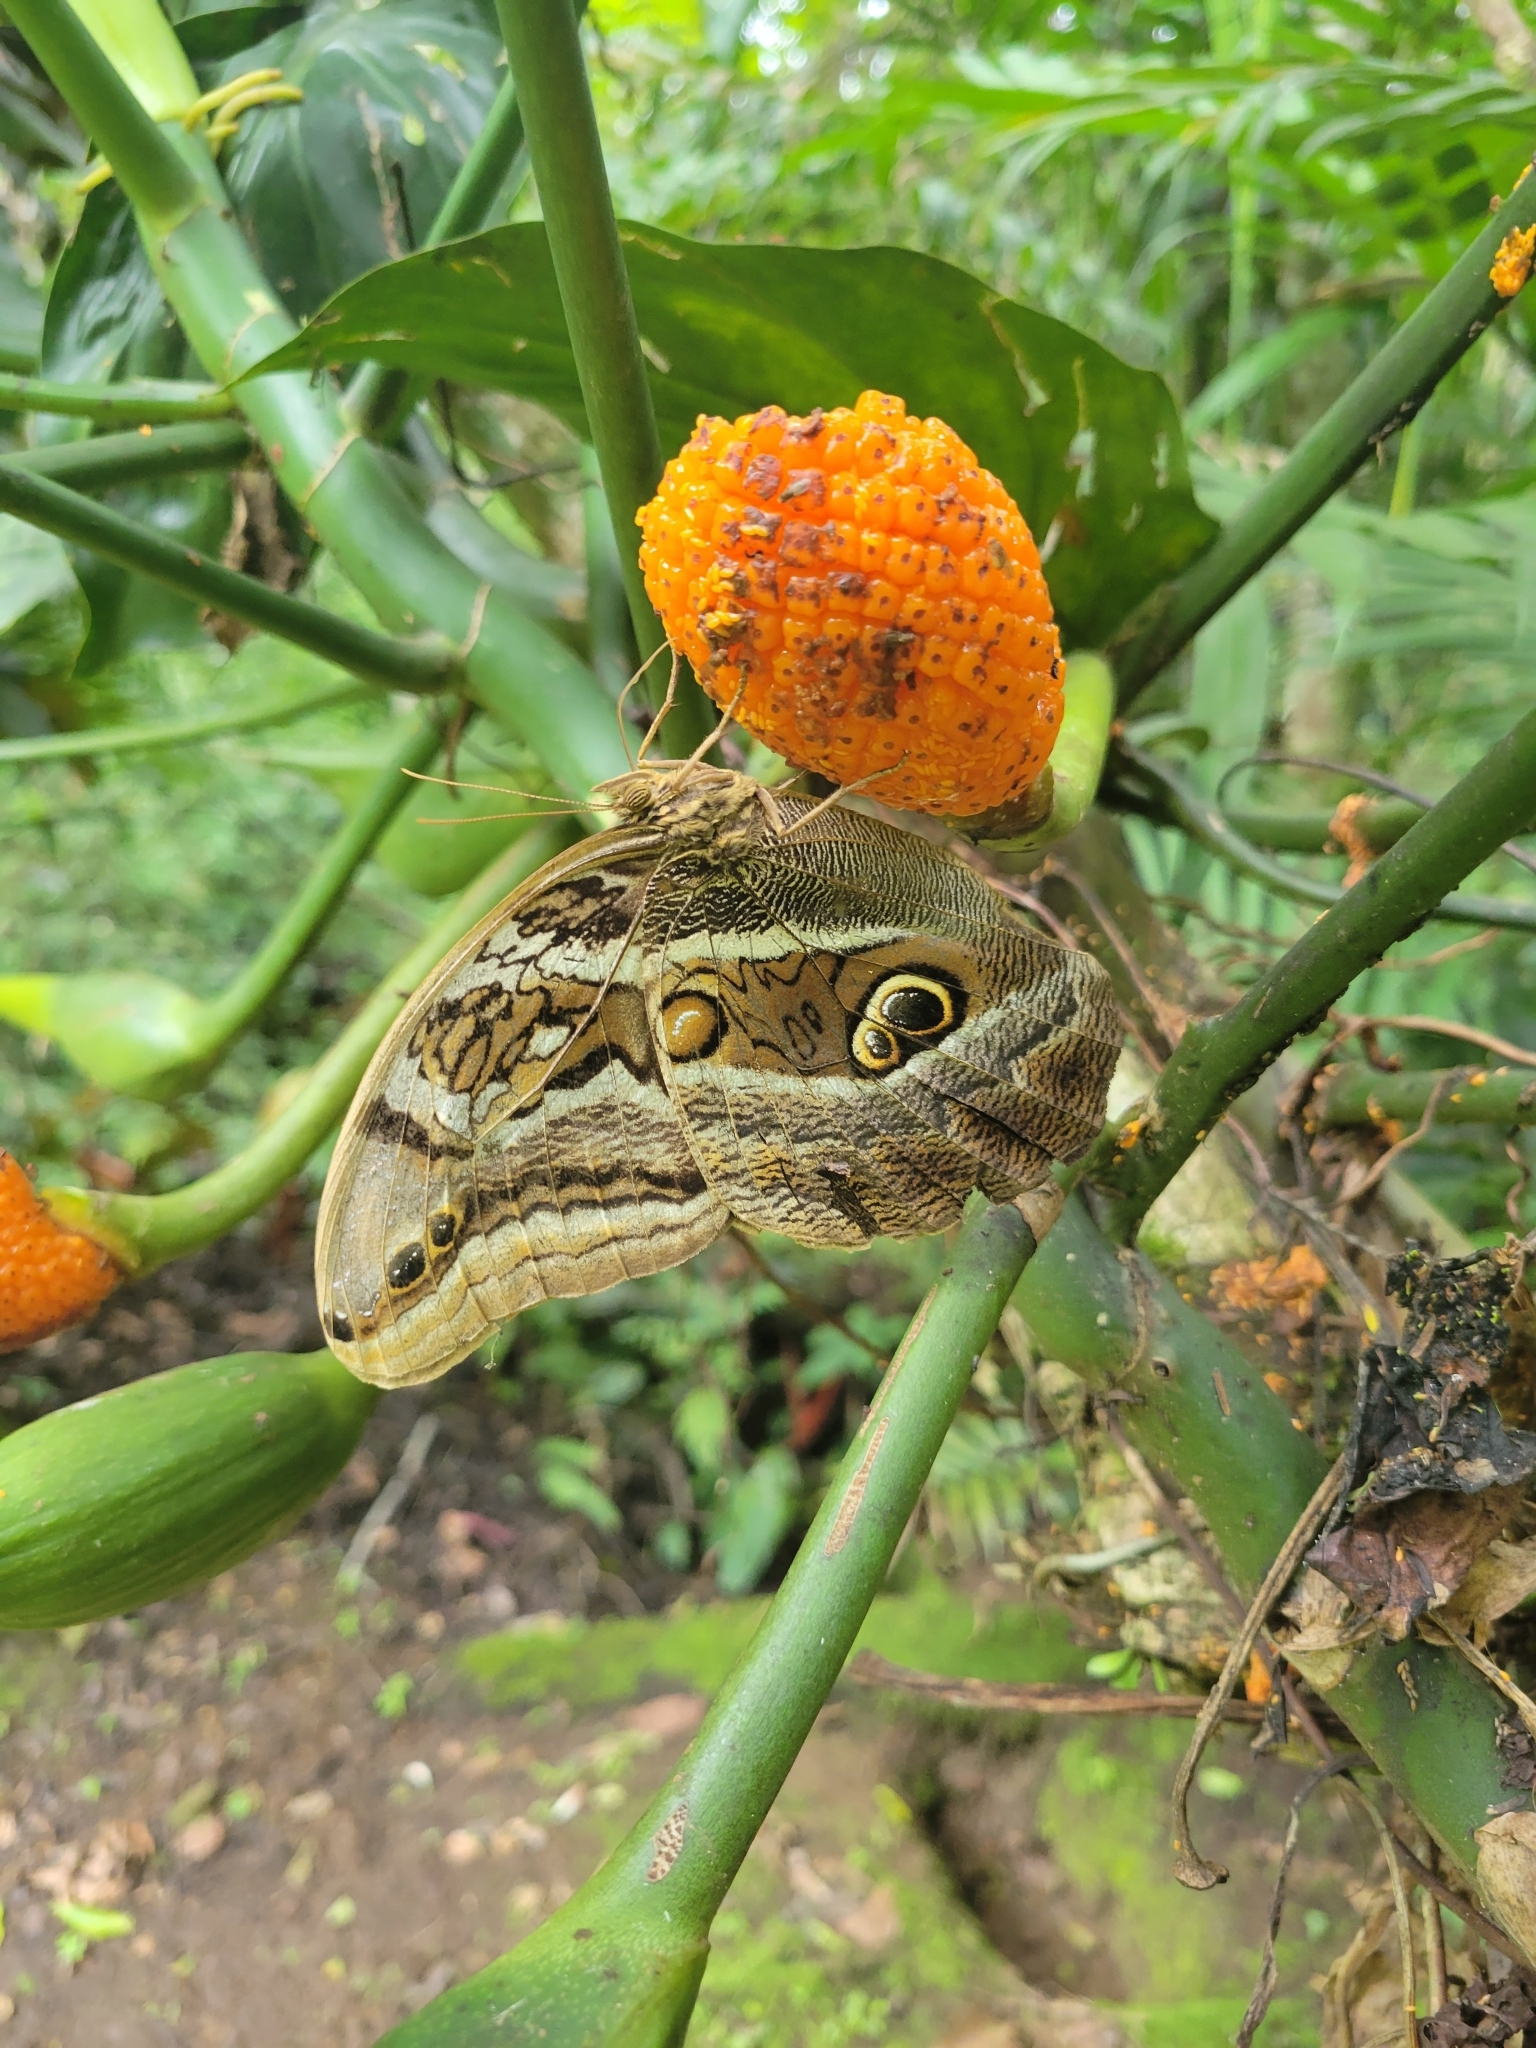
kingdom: Animalia
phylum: Arthropoda
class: Insecta
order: Lepidoptera
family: Nymphalidae
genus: Eryphanis
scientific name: Eryphanis aesacus
